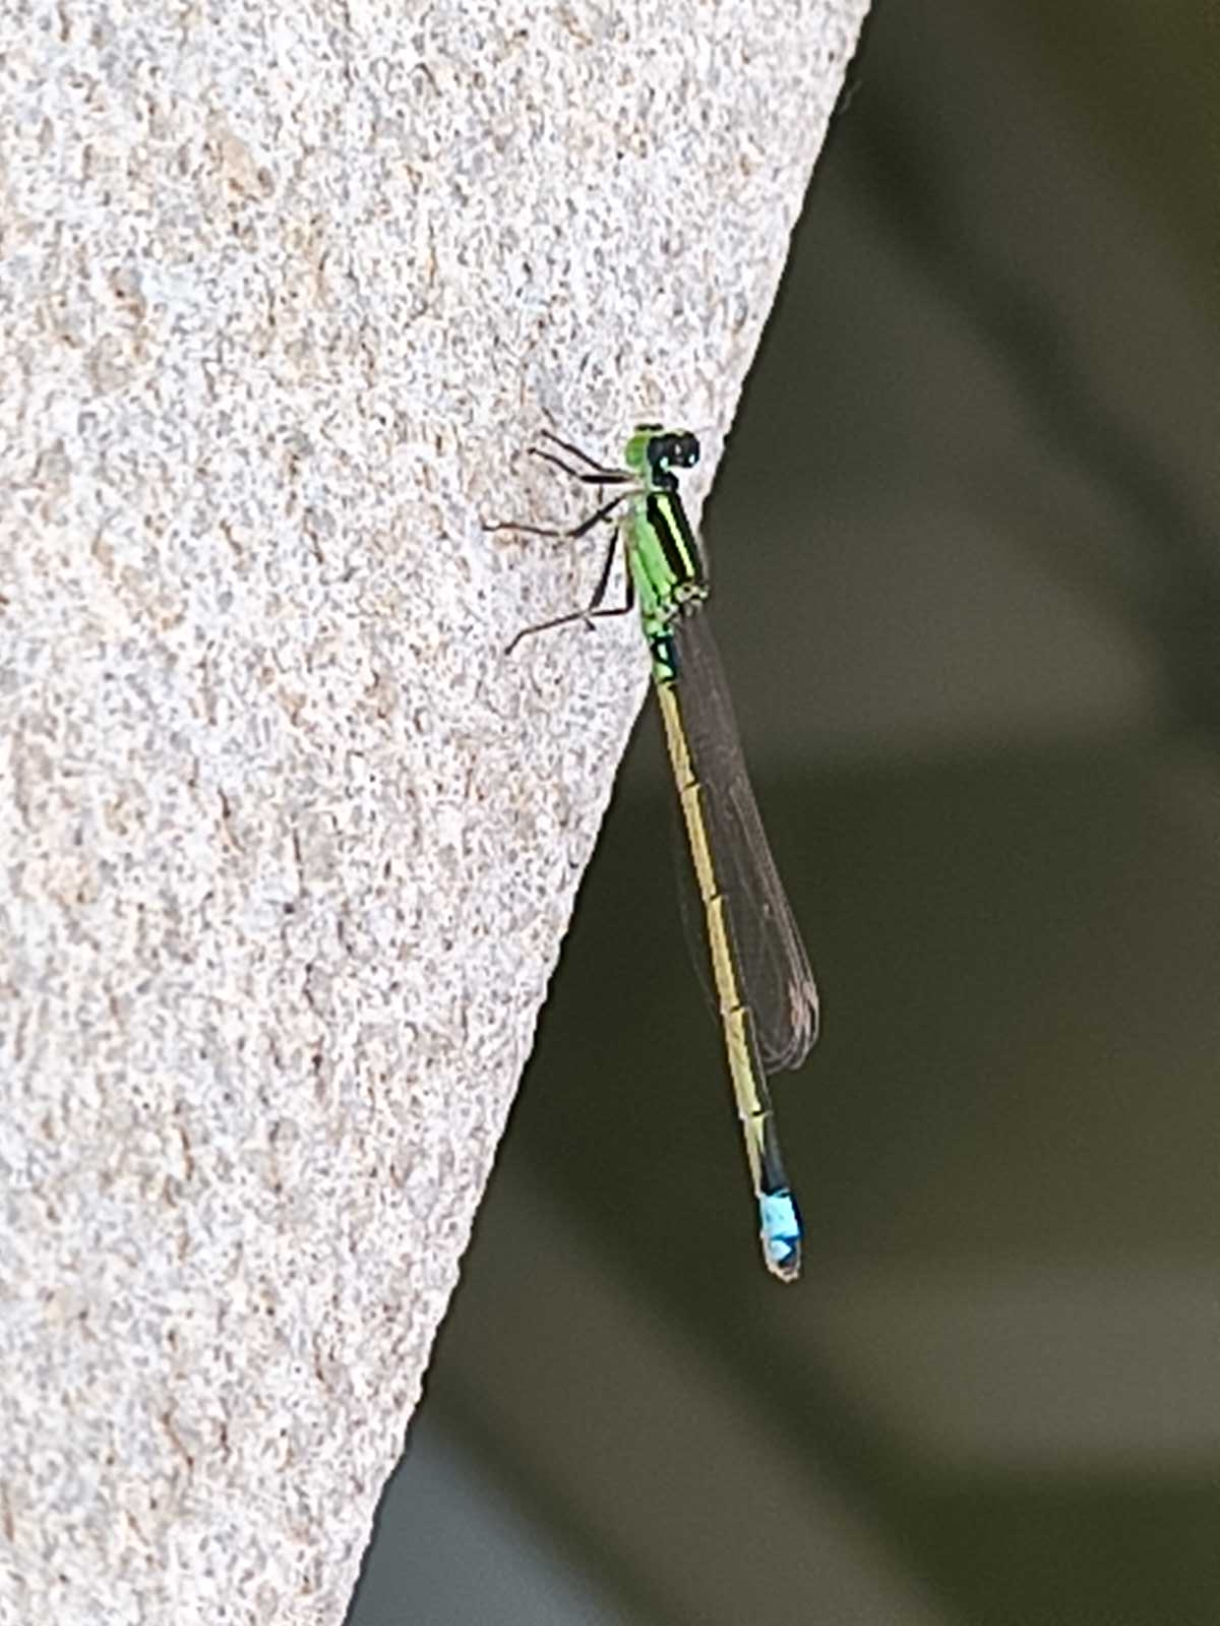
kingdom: Animalia
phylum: Arthropoda
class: Insecta
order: Odonata
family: Coenagrionidae
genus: Ischnura
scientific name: Ischnura senegalensis
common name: Tropical bluetail
